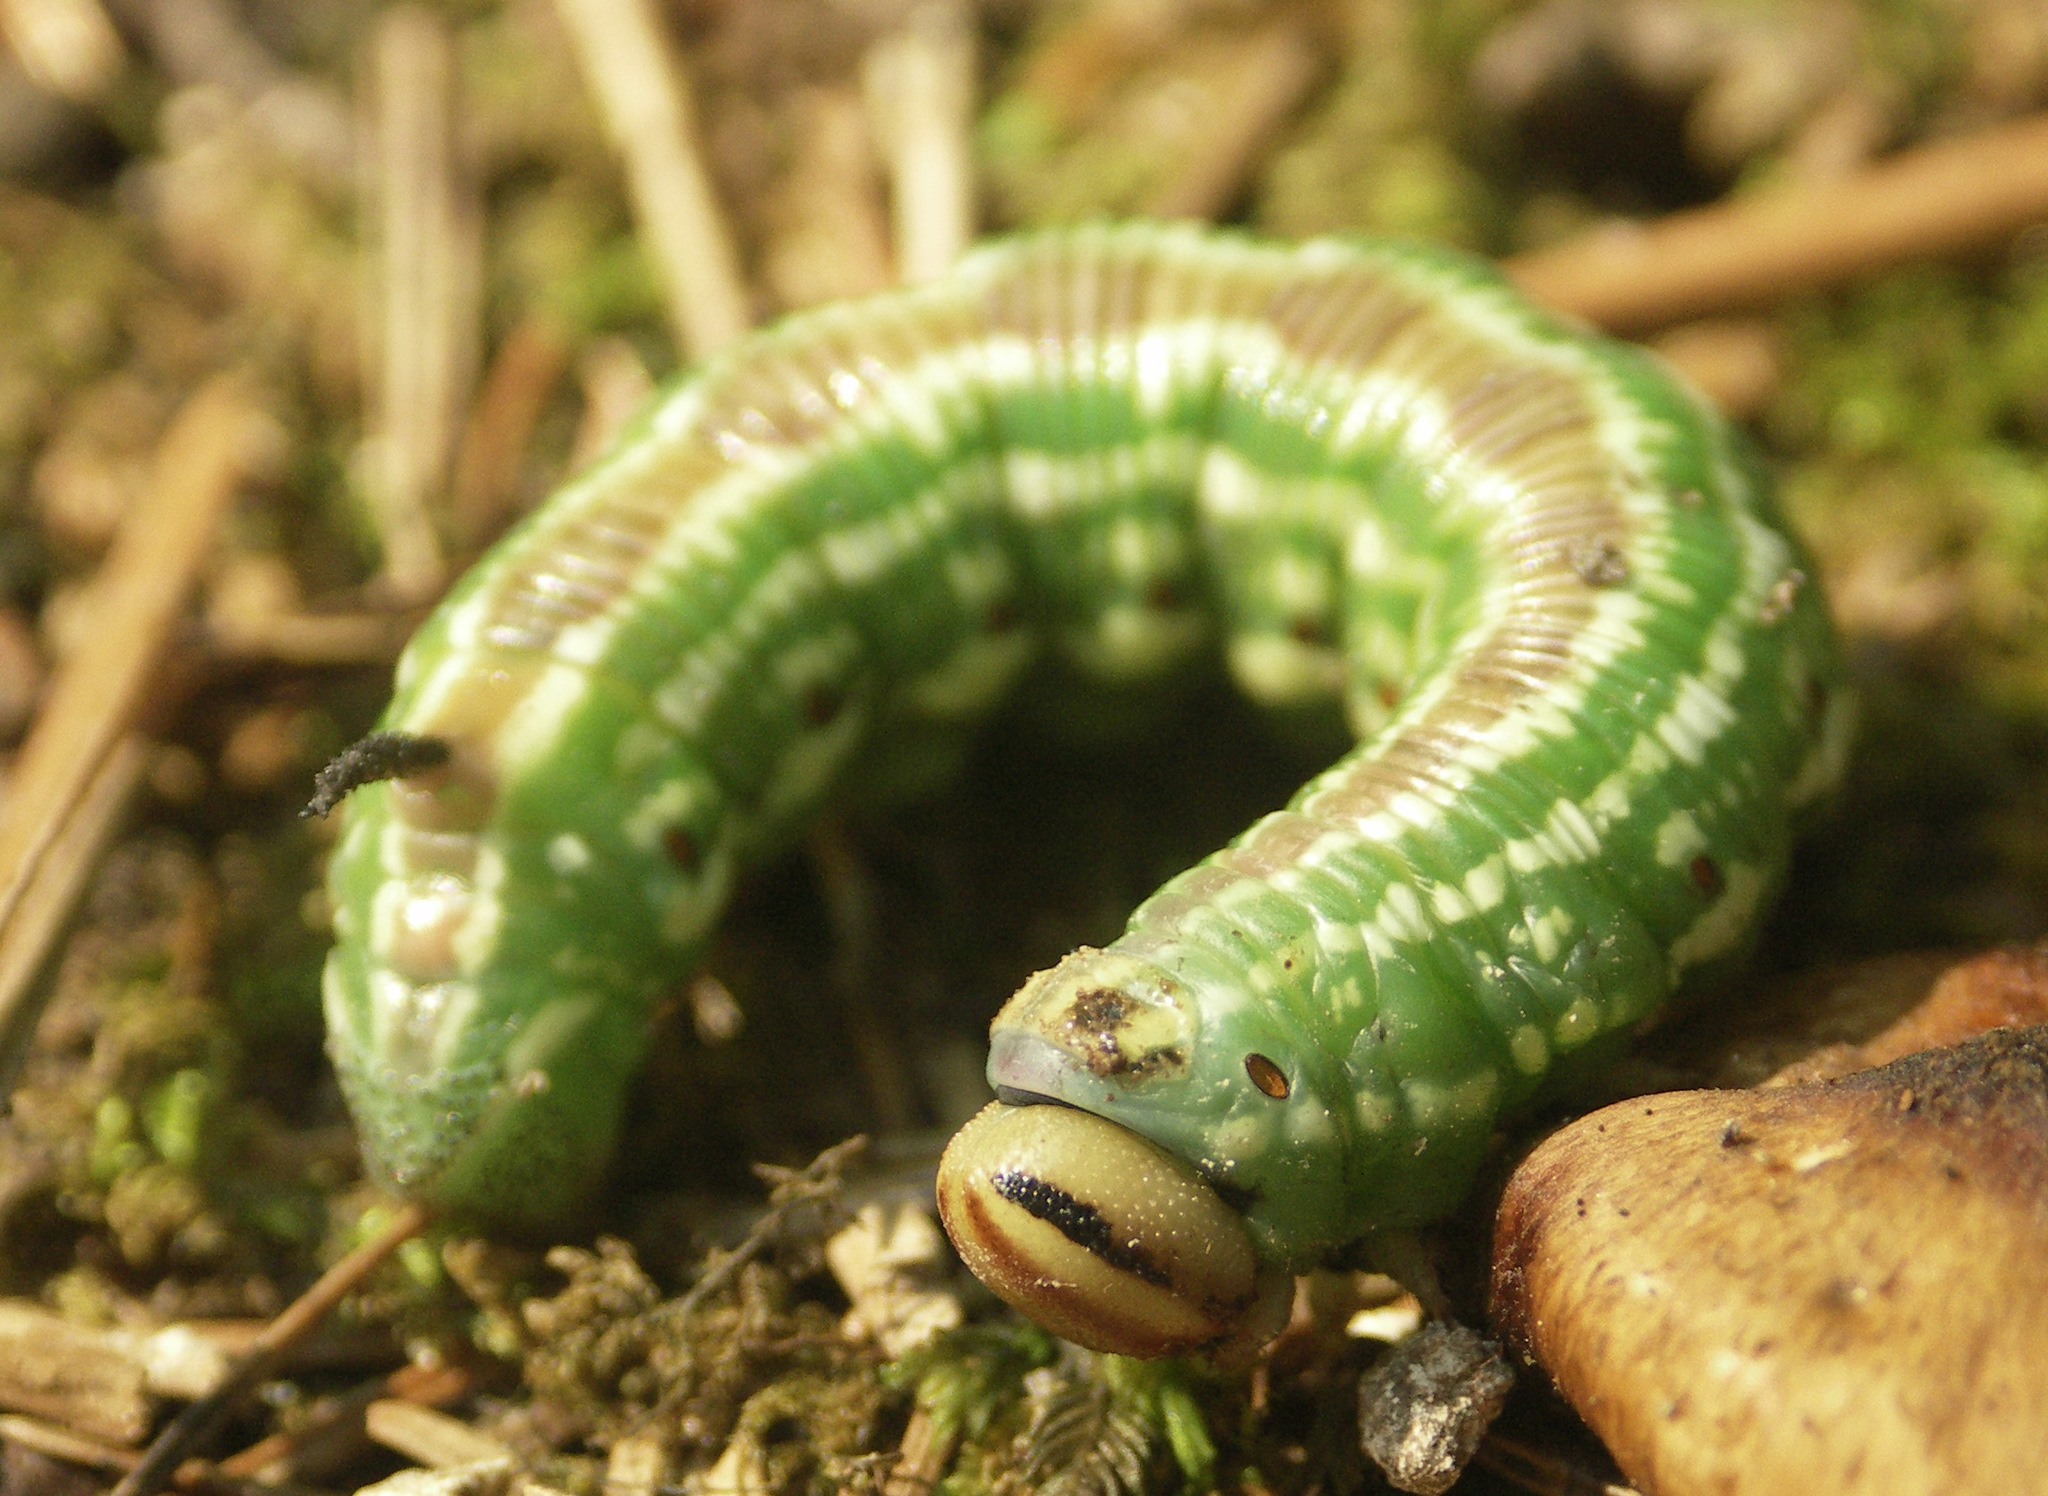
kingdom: Animalia
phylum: Arthropoda
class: Insecta
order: Lepidoptera
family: Sphingidae
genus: Sphinx
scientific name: Sphinx pinastri
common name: Pine hawk-moth
